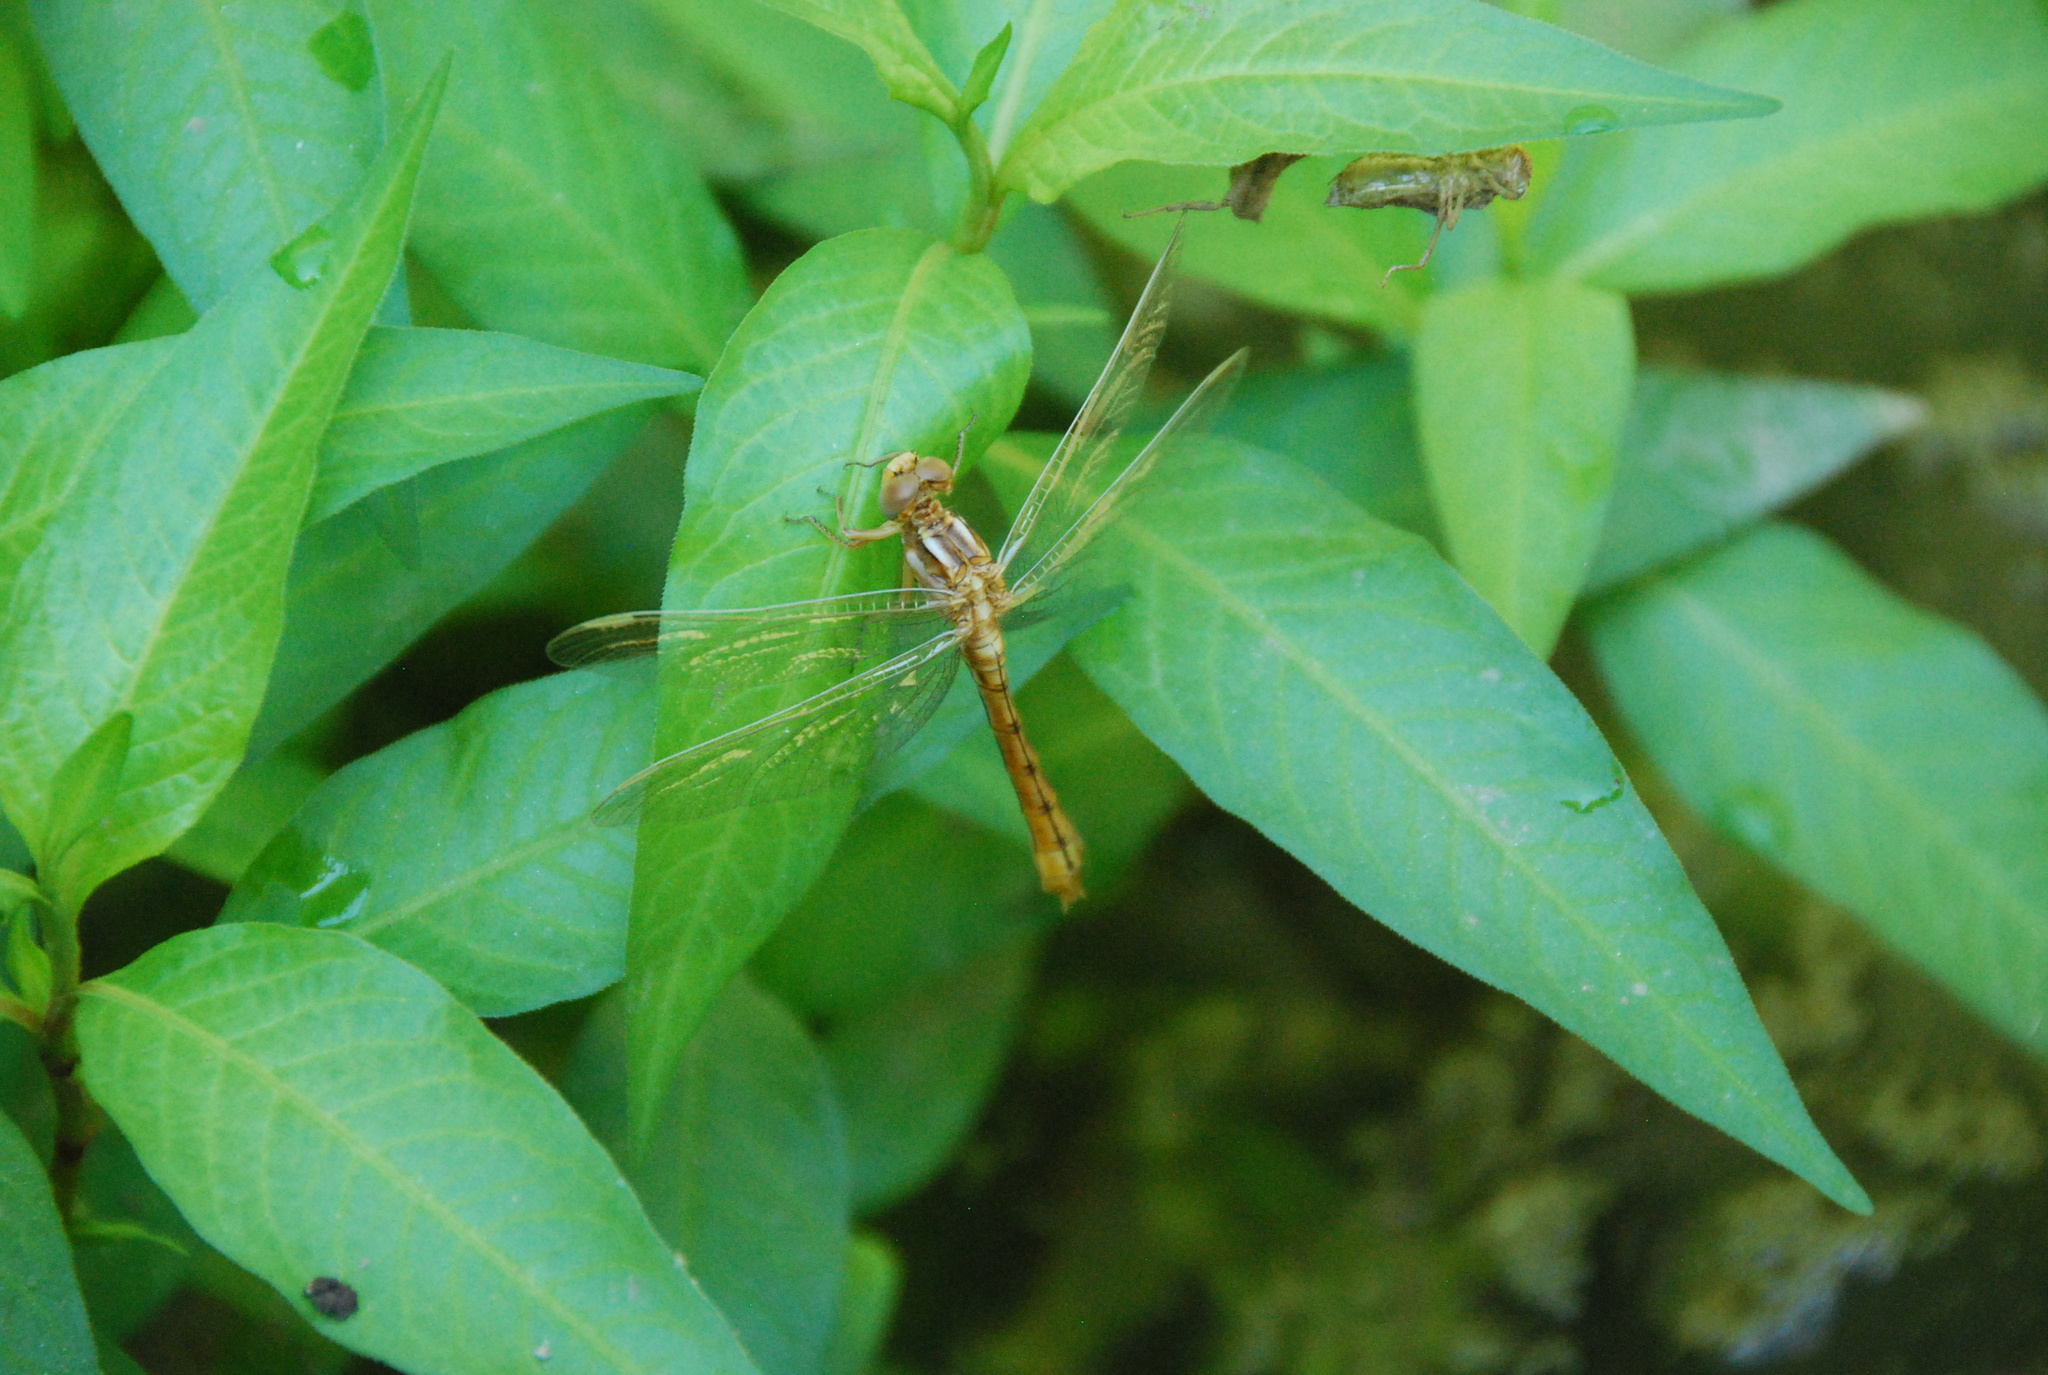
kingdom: Animalia
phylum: Arthropoda
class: Insecta
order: Odonata
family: Libellulidae
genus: Orthetrum
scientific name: Orthetrum coerulescens
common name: Keeled skimmer
